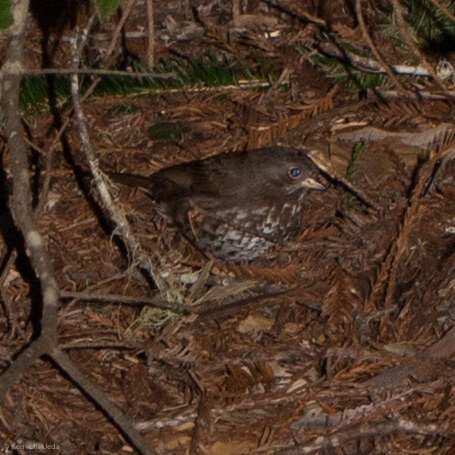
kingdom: Animalia
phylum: Chordata
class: Aves
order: Passeriformes
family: Passerellidae
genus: Passerella
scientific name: Passerella iliaca
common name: Fox sparrow
